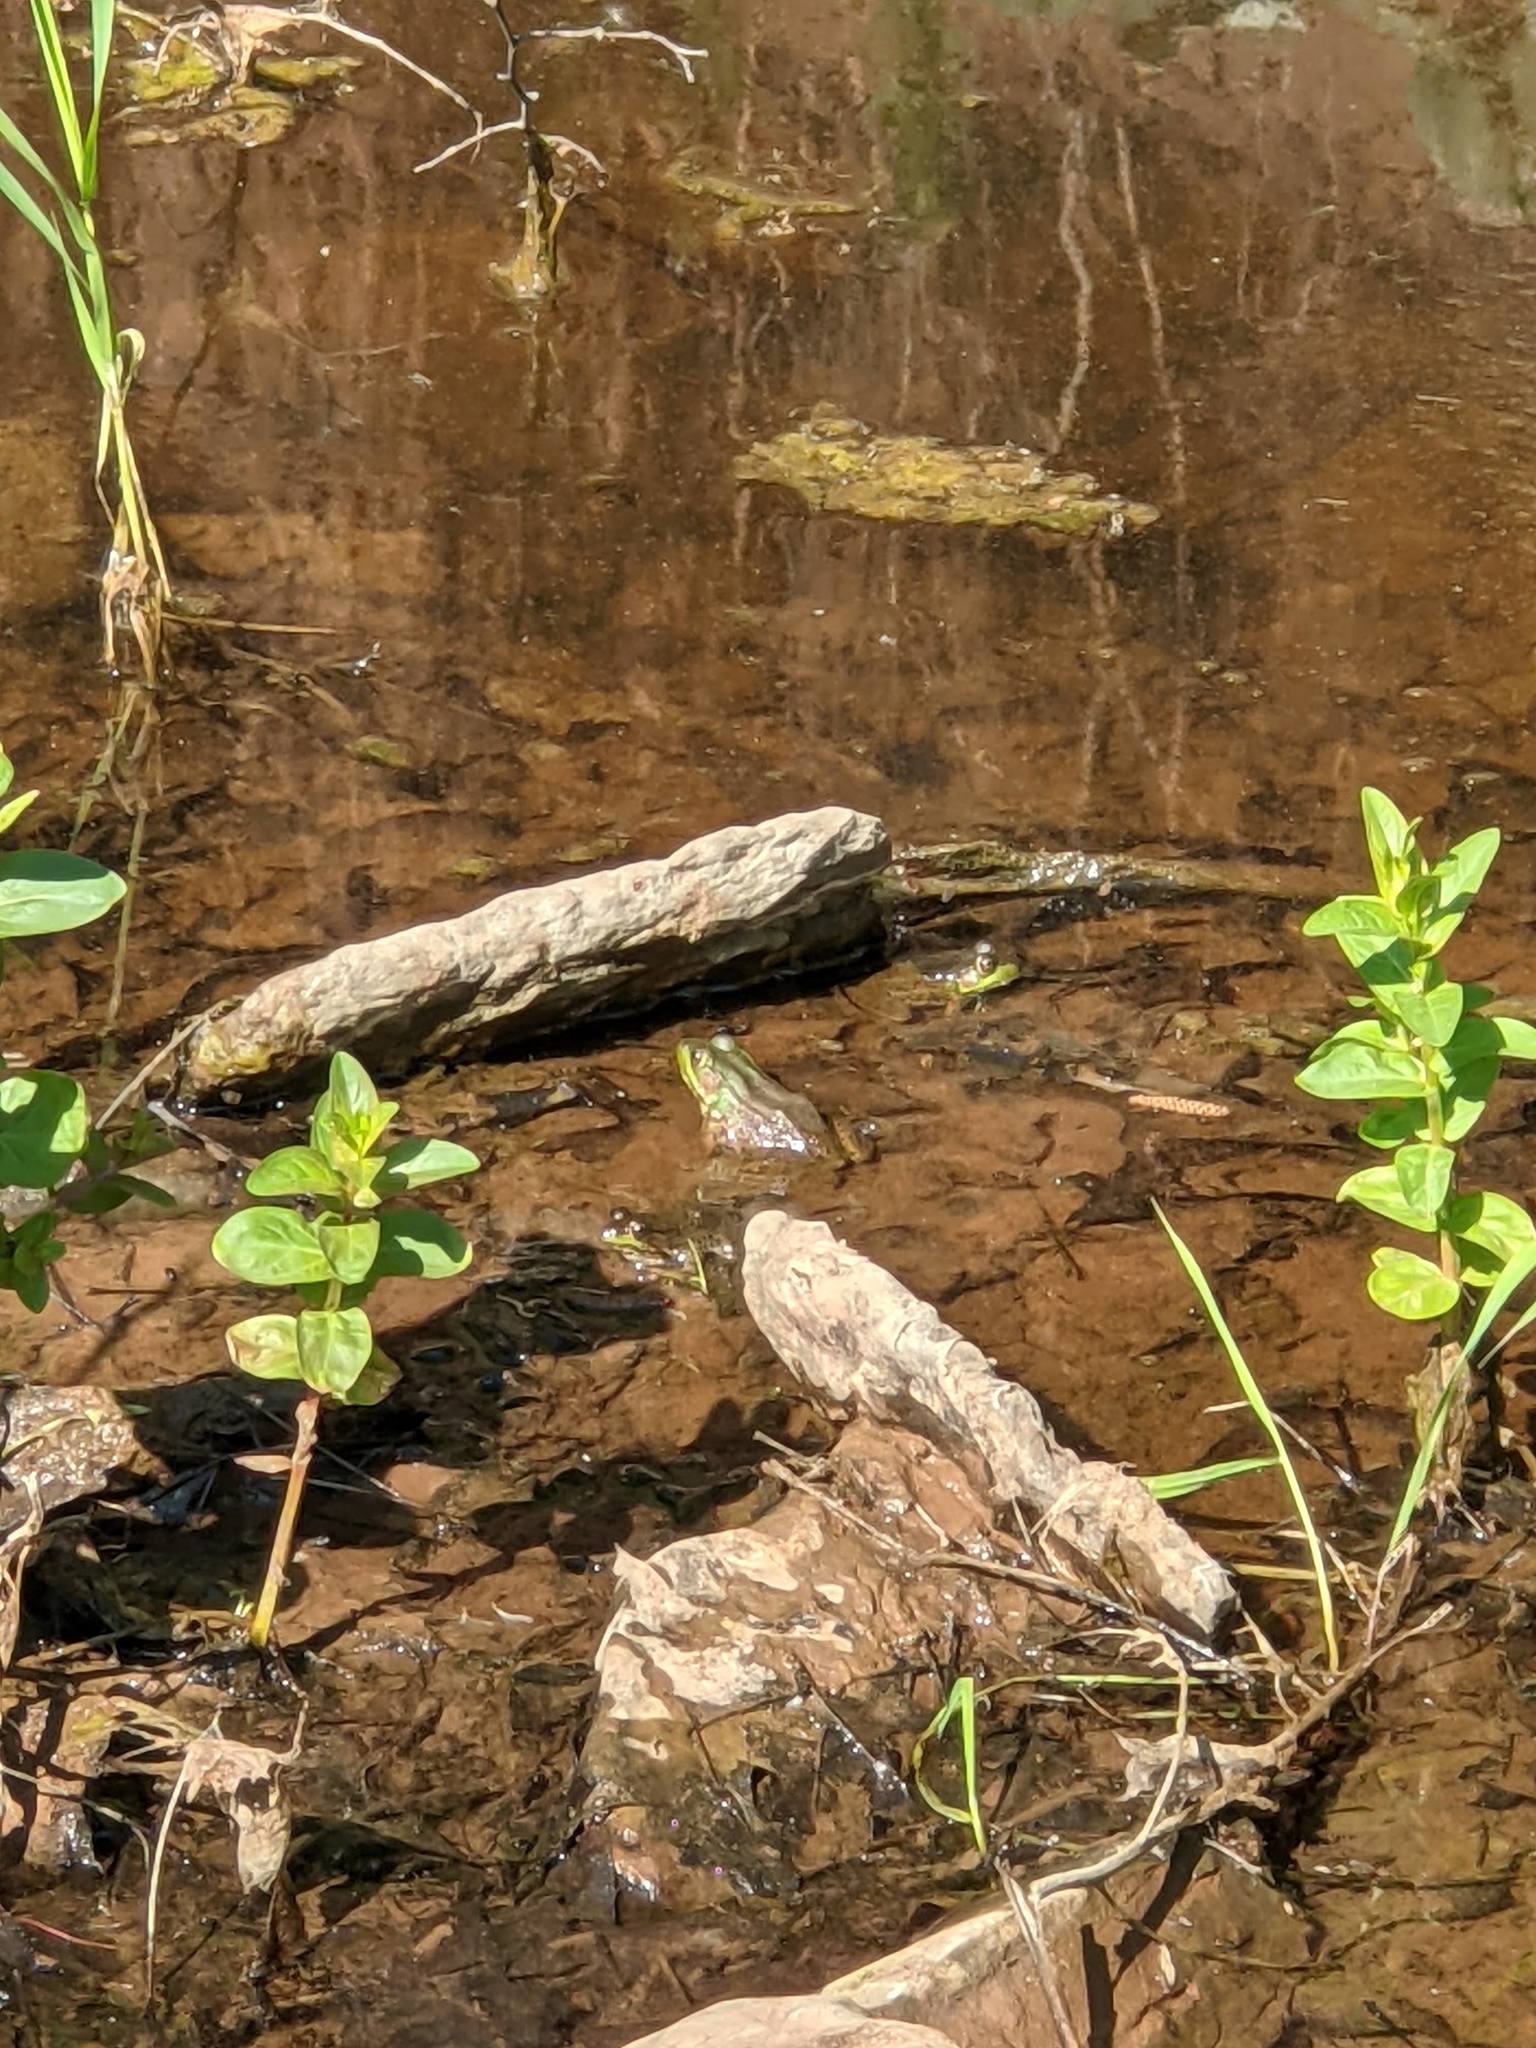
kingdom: Animalia
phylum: Chordata
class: Amphibia
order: Anura
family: Ranidae
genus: Lithobates
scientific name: Lithobates clamitans
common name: Green frog
